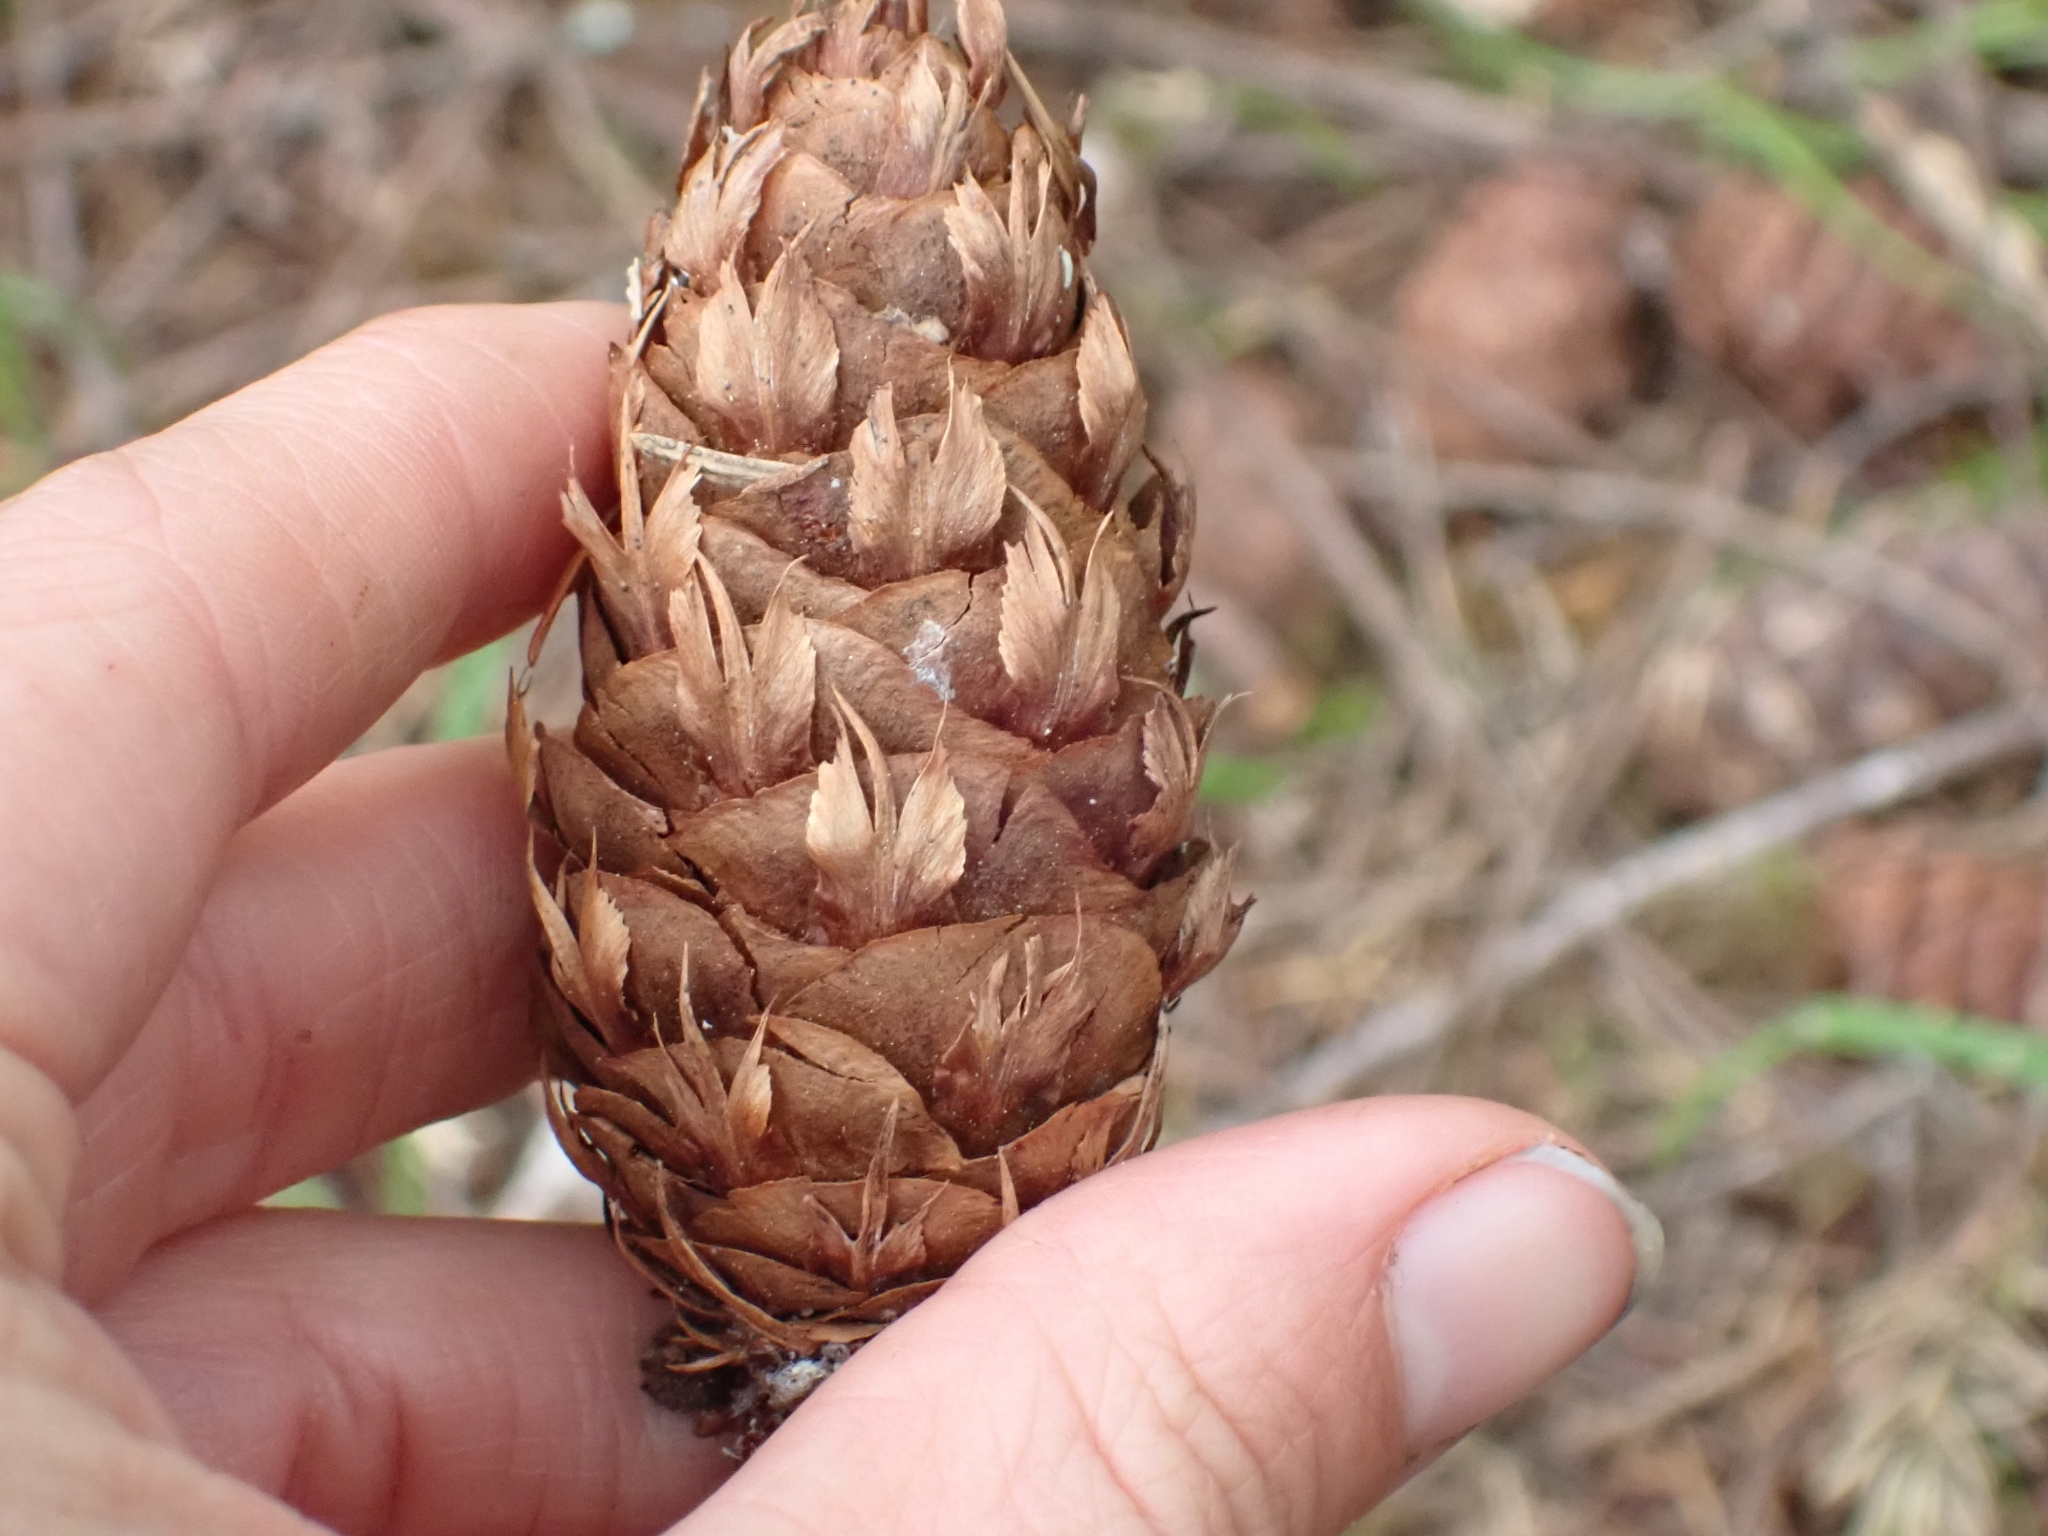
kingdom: Plantae
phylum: Tracheophyta
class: Pinopsida
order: Pinales
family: Pinaceae
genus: Pseudotsuga
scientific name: Pseudotsuga menziesii
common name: Douglas fir
